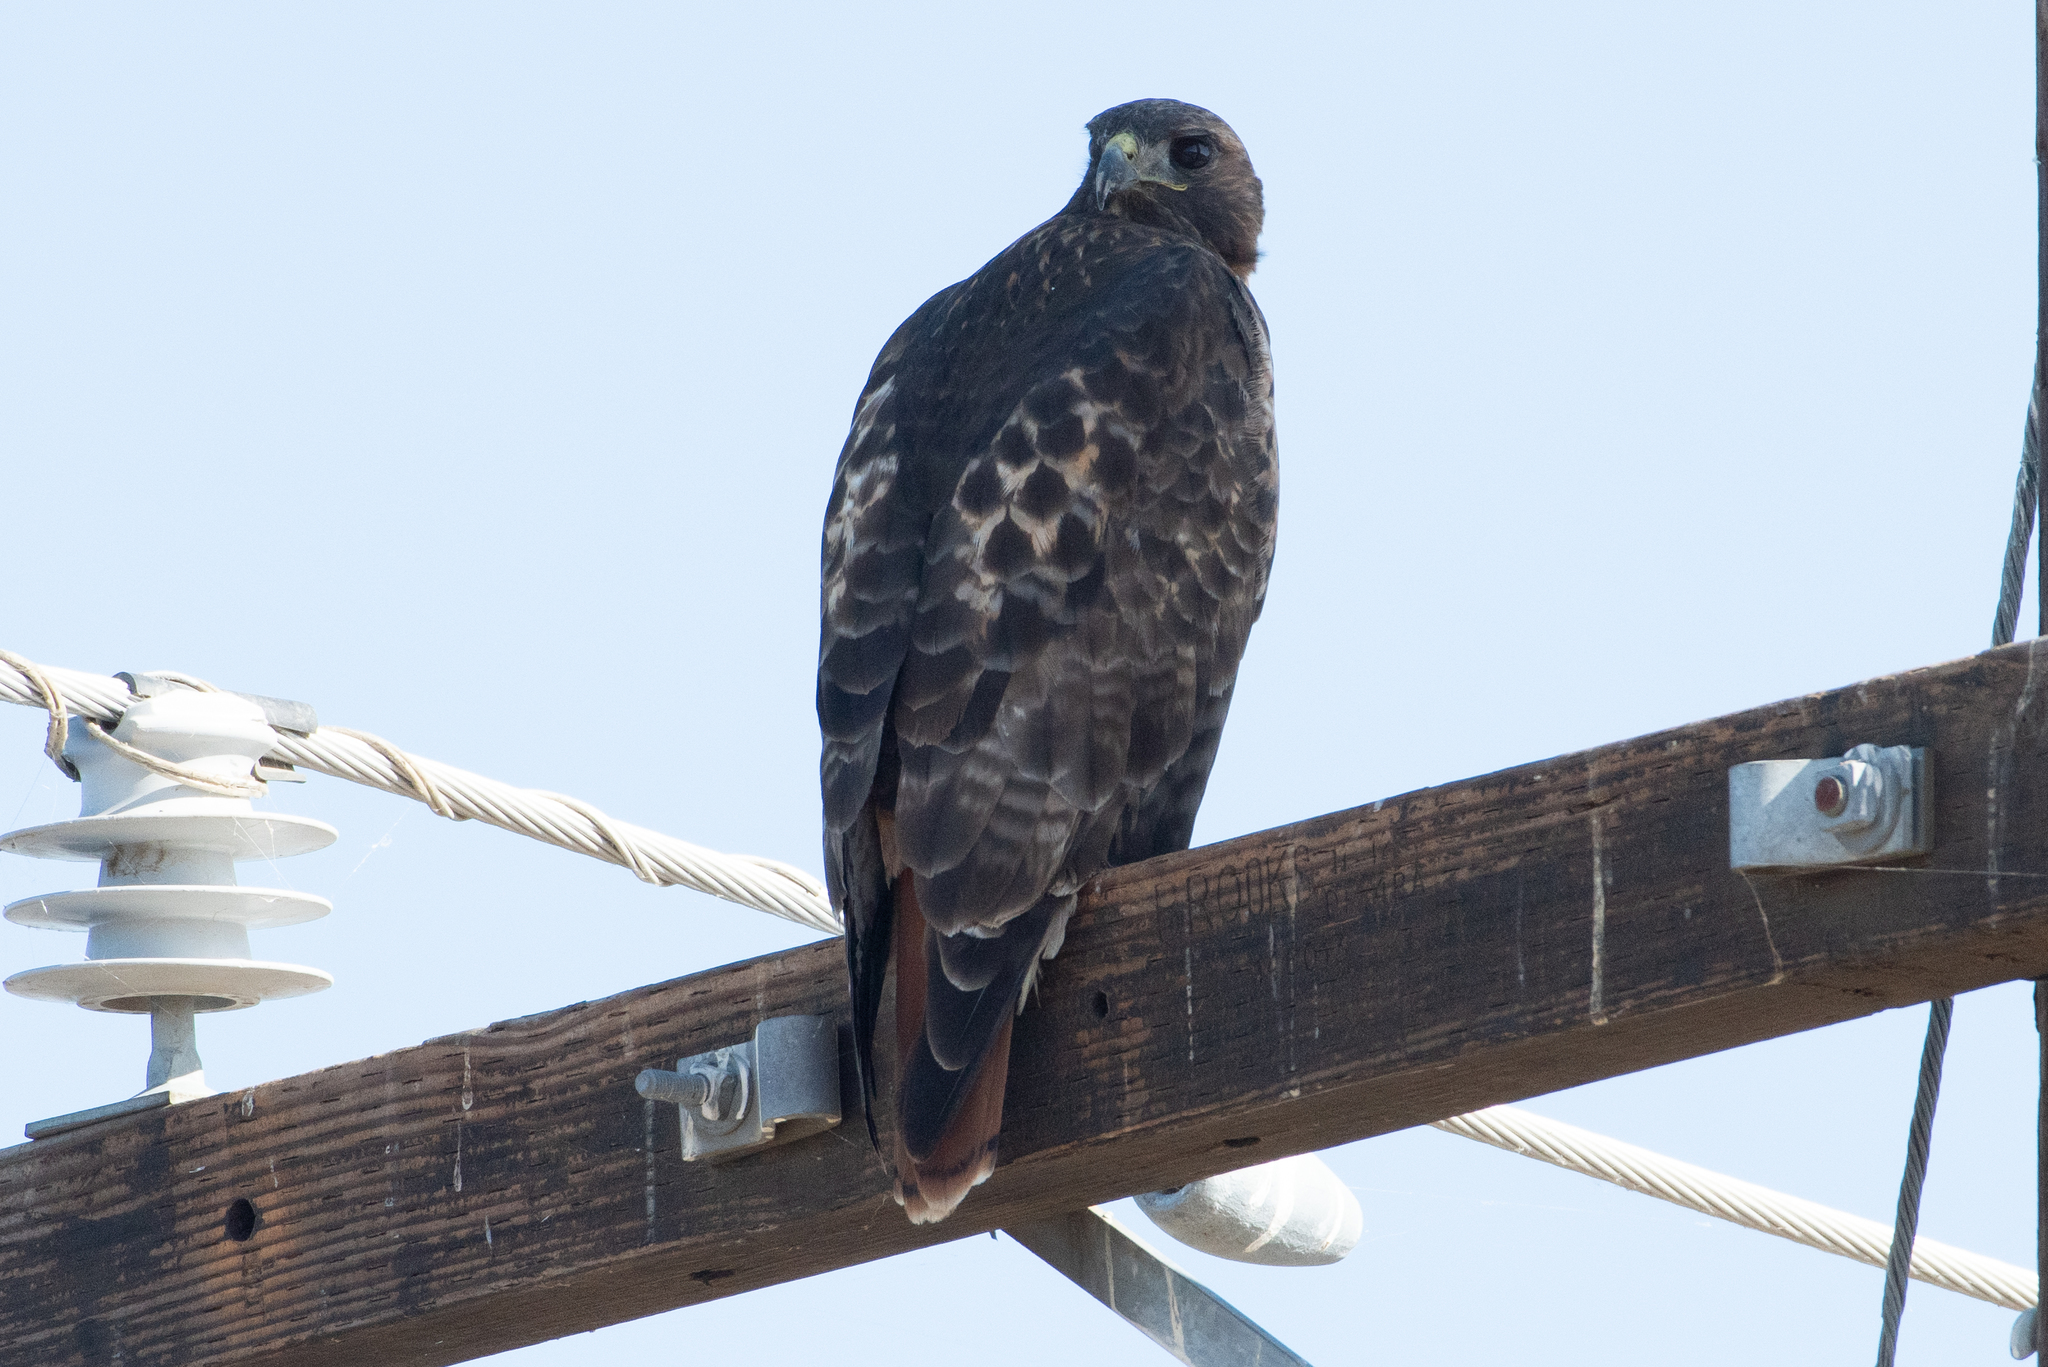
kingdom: Animalia
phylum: Chordata
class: Aves
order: Accipitriformes
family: Accipitridae
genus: Buteo
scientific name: Buteo jamaicensis
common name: Red-tailed hawk
